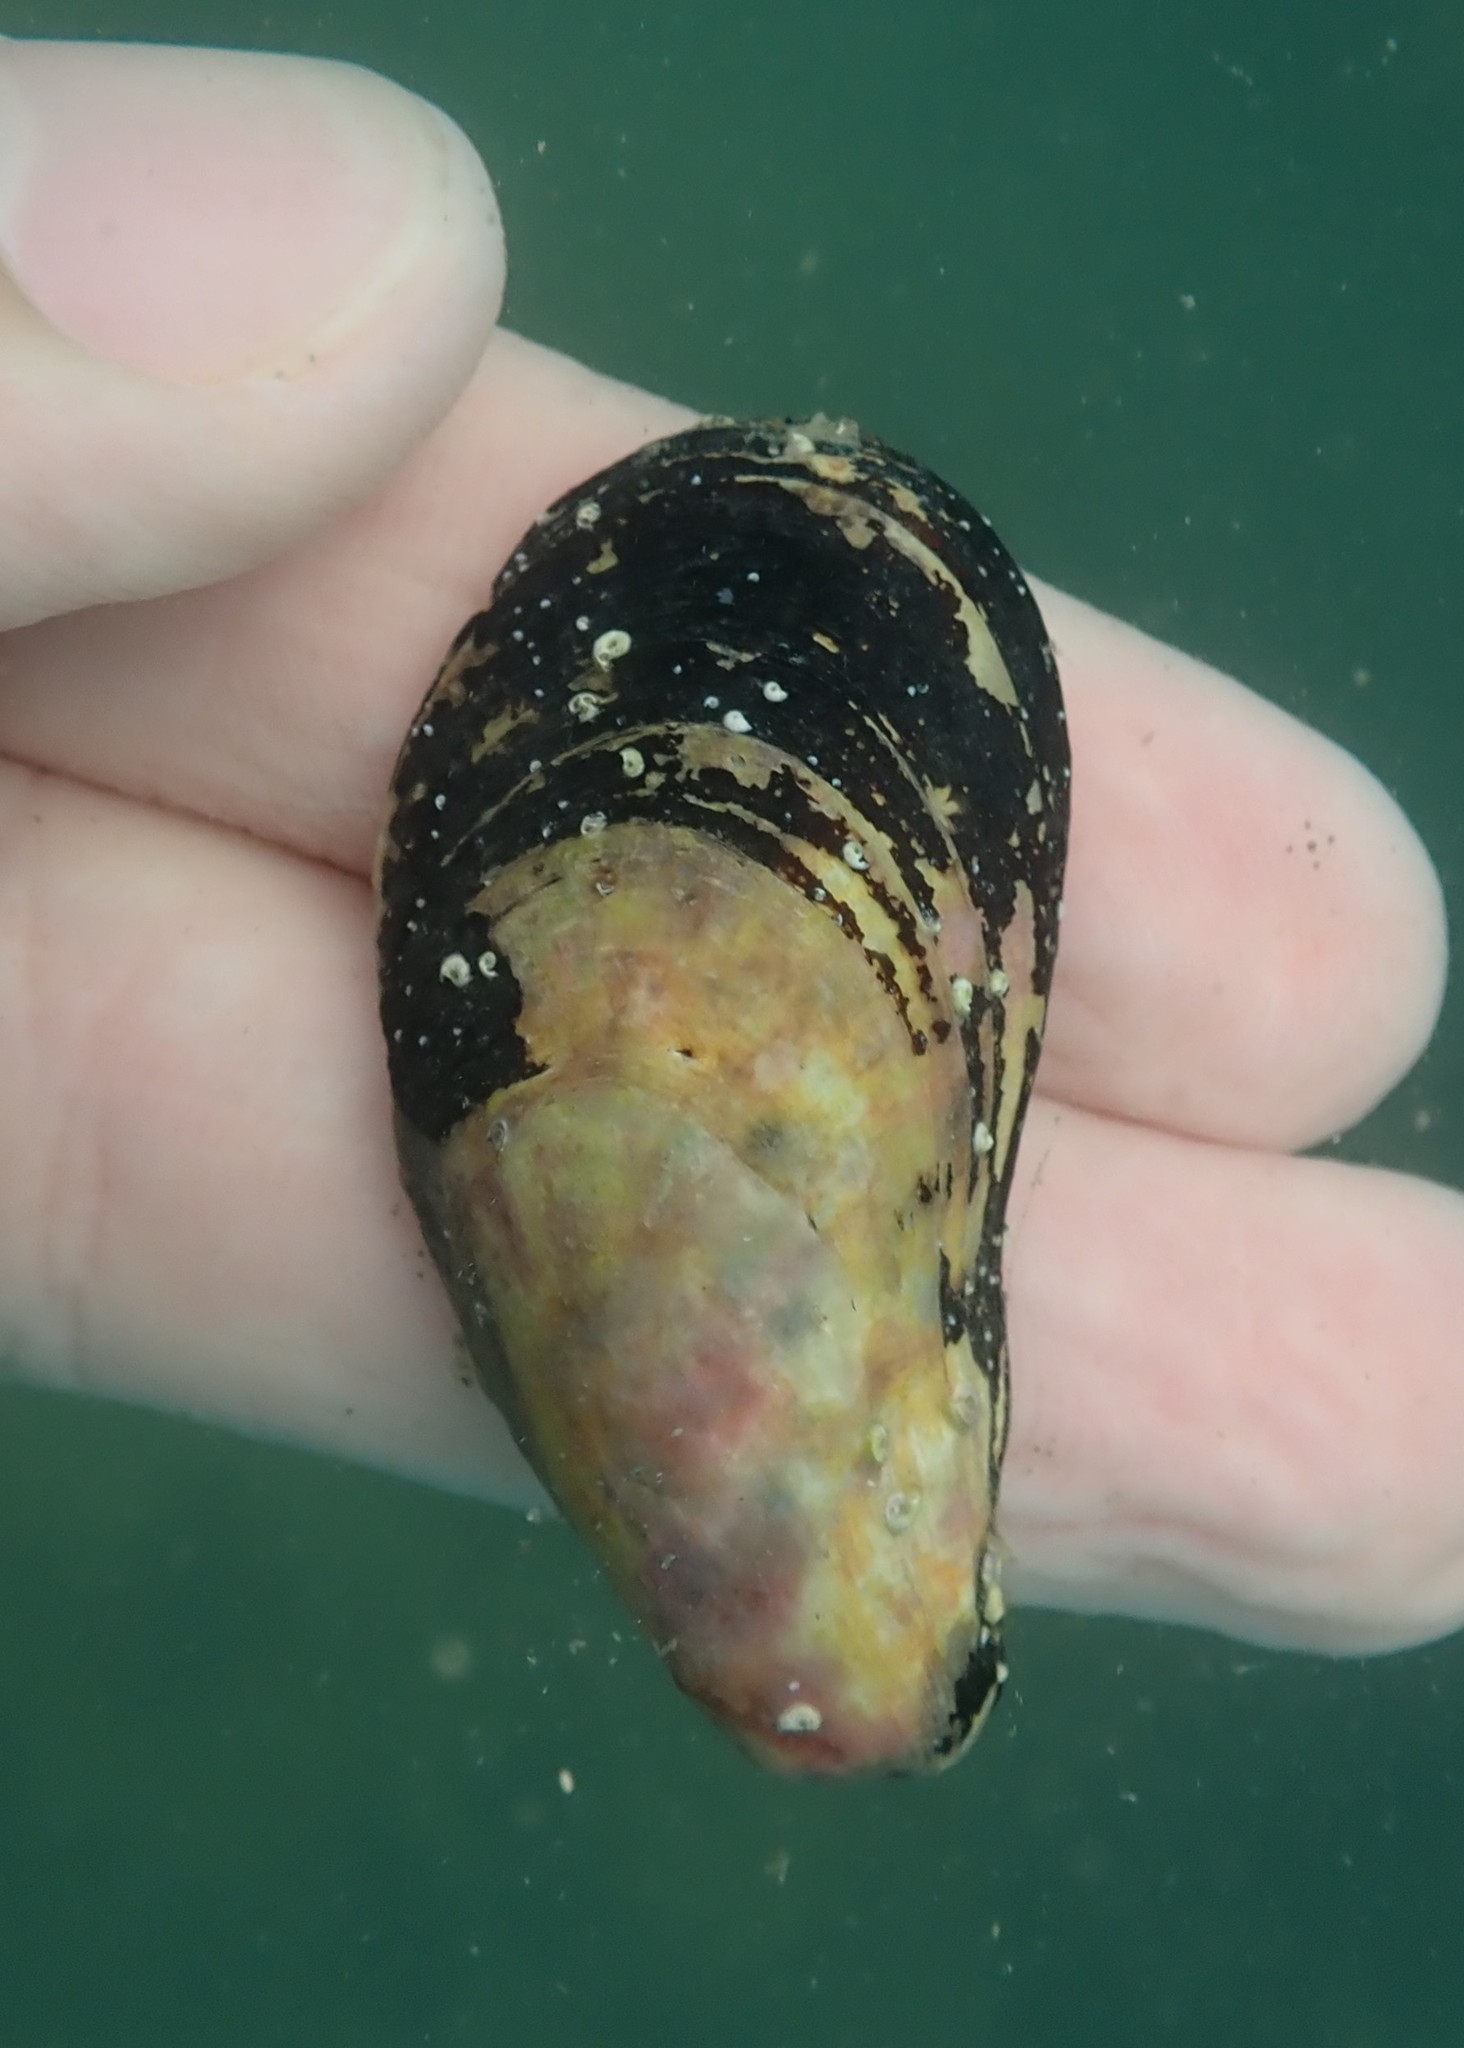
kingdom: Animalia
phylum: Mollusca
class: Bivalvia
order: Mytilida
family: Mytilidae
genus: Modiolus
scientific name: Modiolus areolatus
